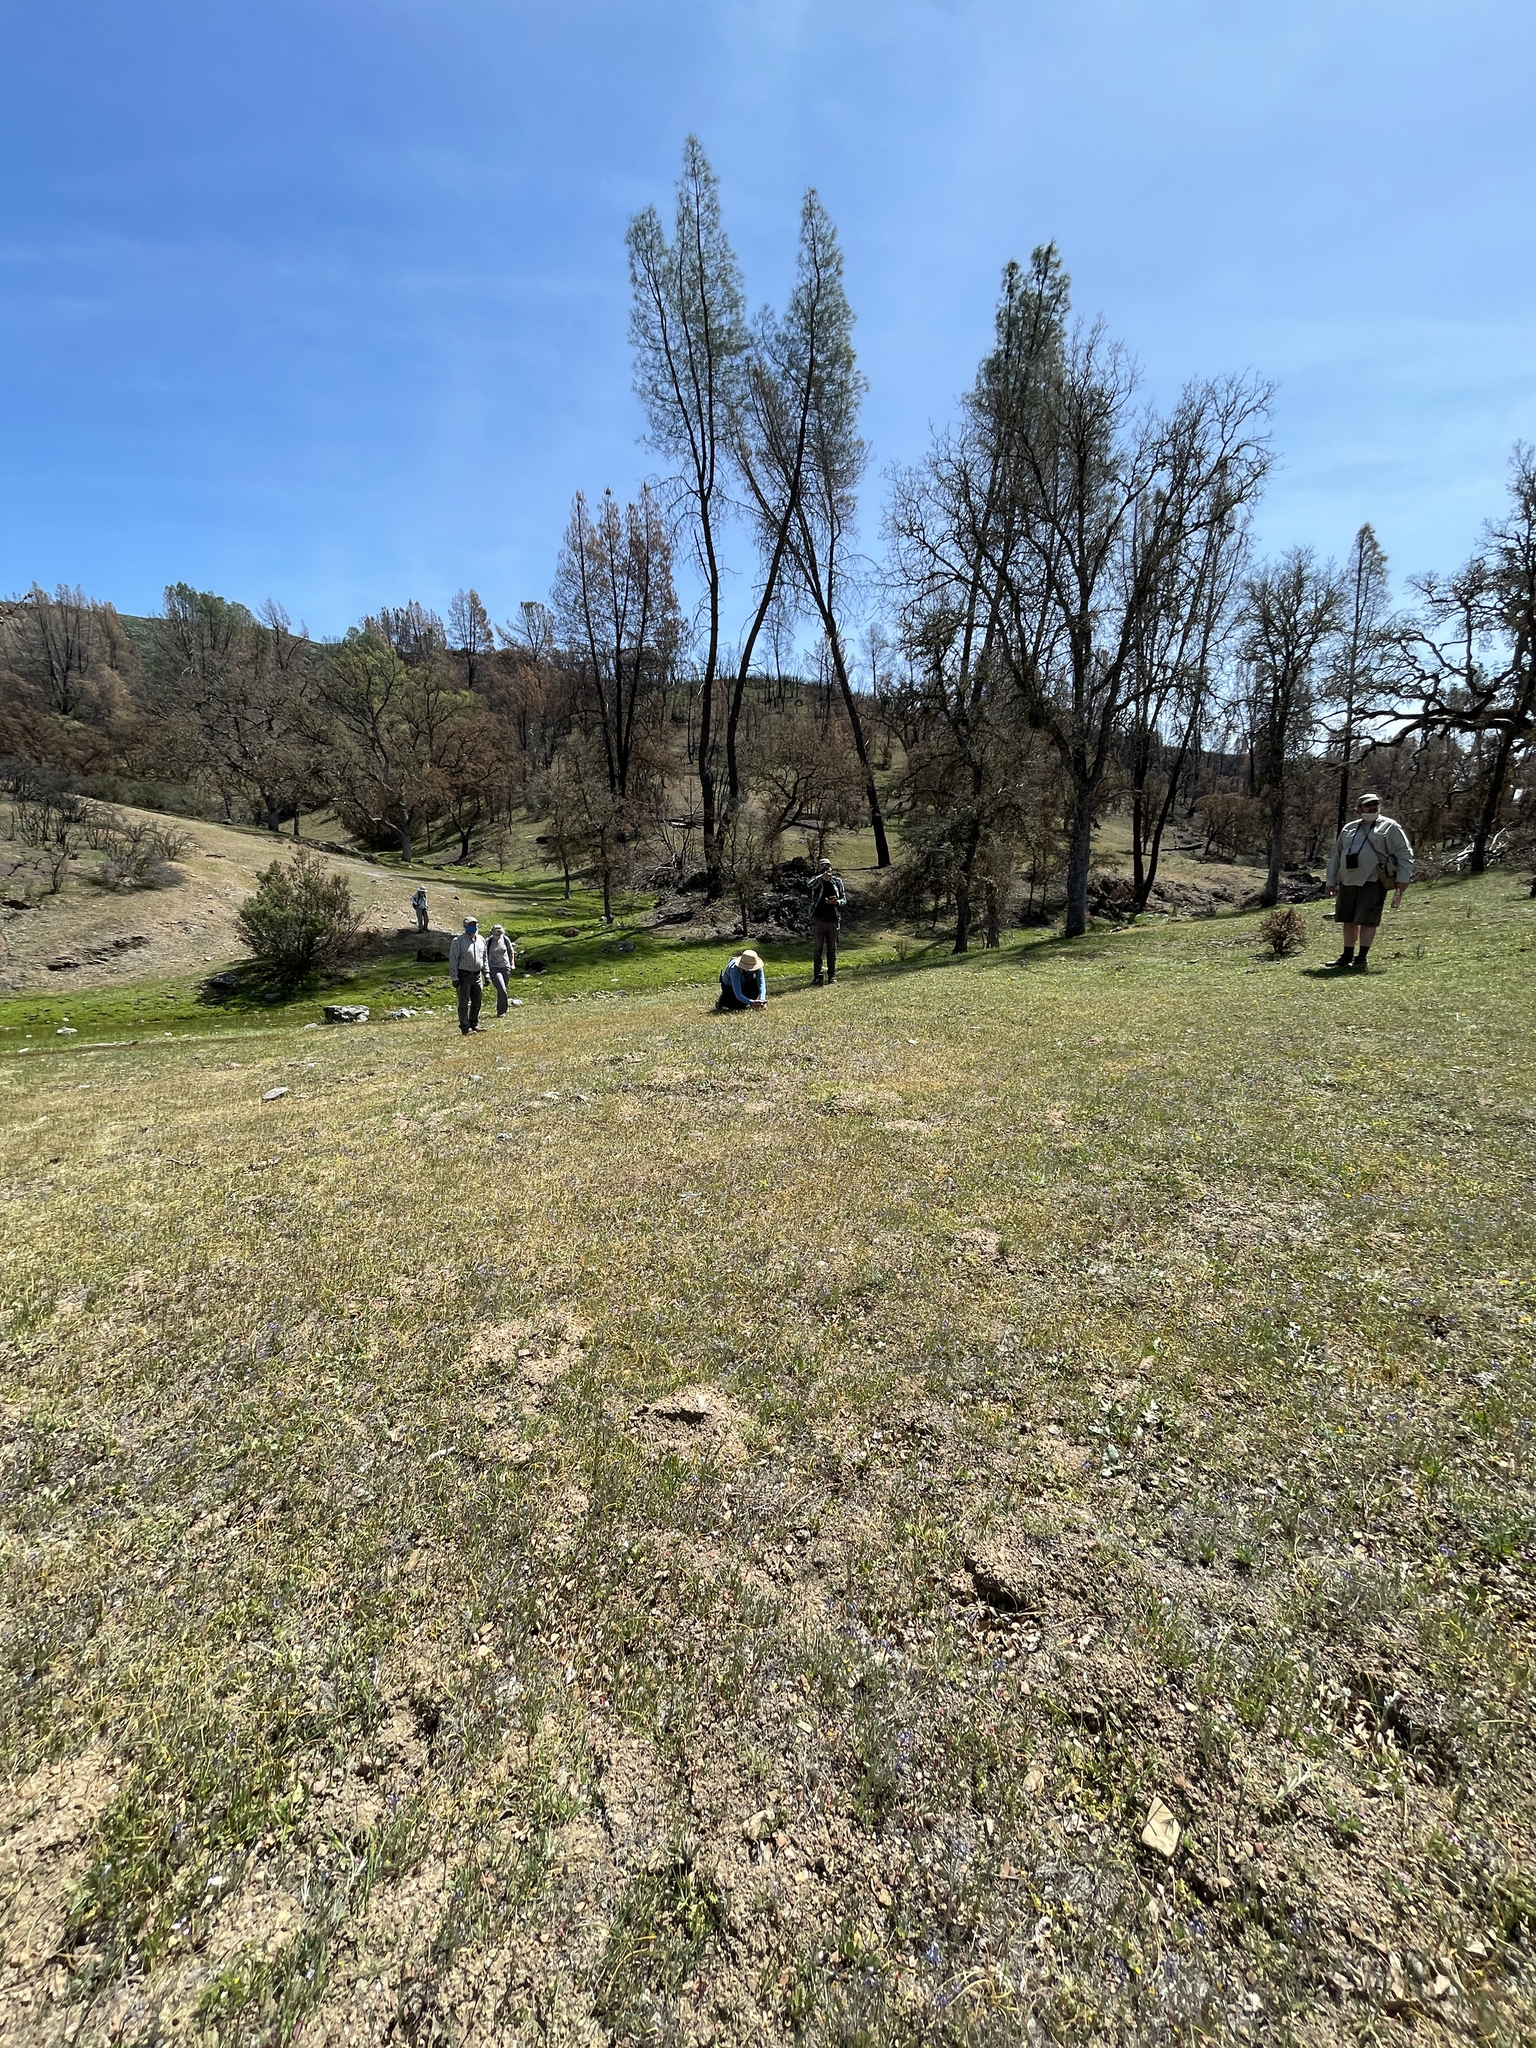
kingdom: Plantae
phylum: Tracheophyta
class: Magnoliopsida
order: Asterales
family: Asteraceae
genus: Pentachaeta
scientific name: Pentachaeta exilis
